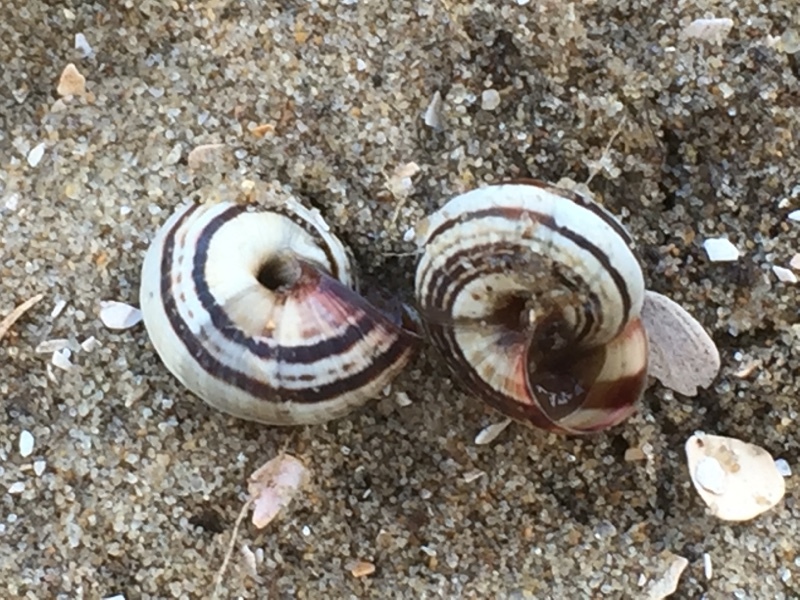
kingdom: Animalia
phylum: Mollusca
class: Gastropoda
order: Stylommatophora
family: Geomitridae
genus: Cernuella
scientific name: Cernuella virgata
